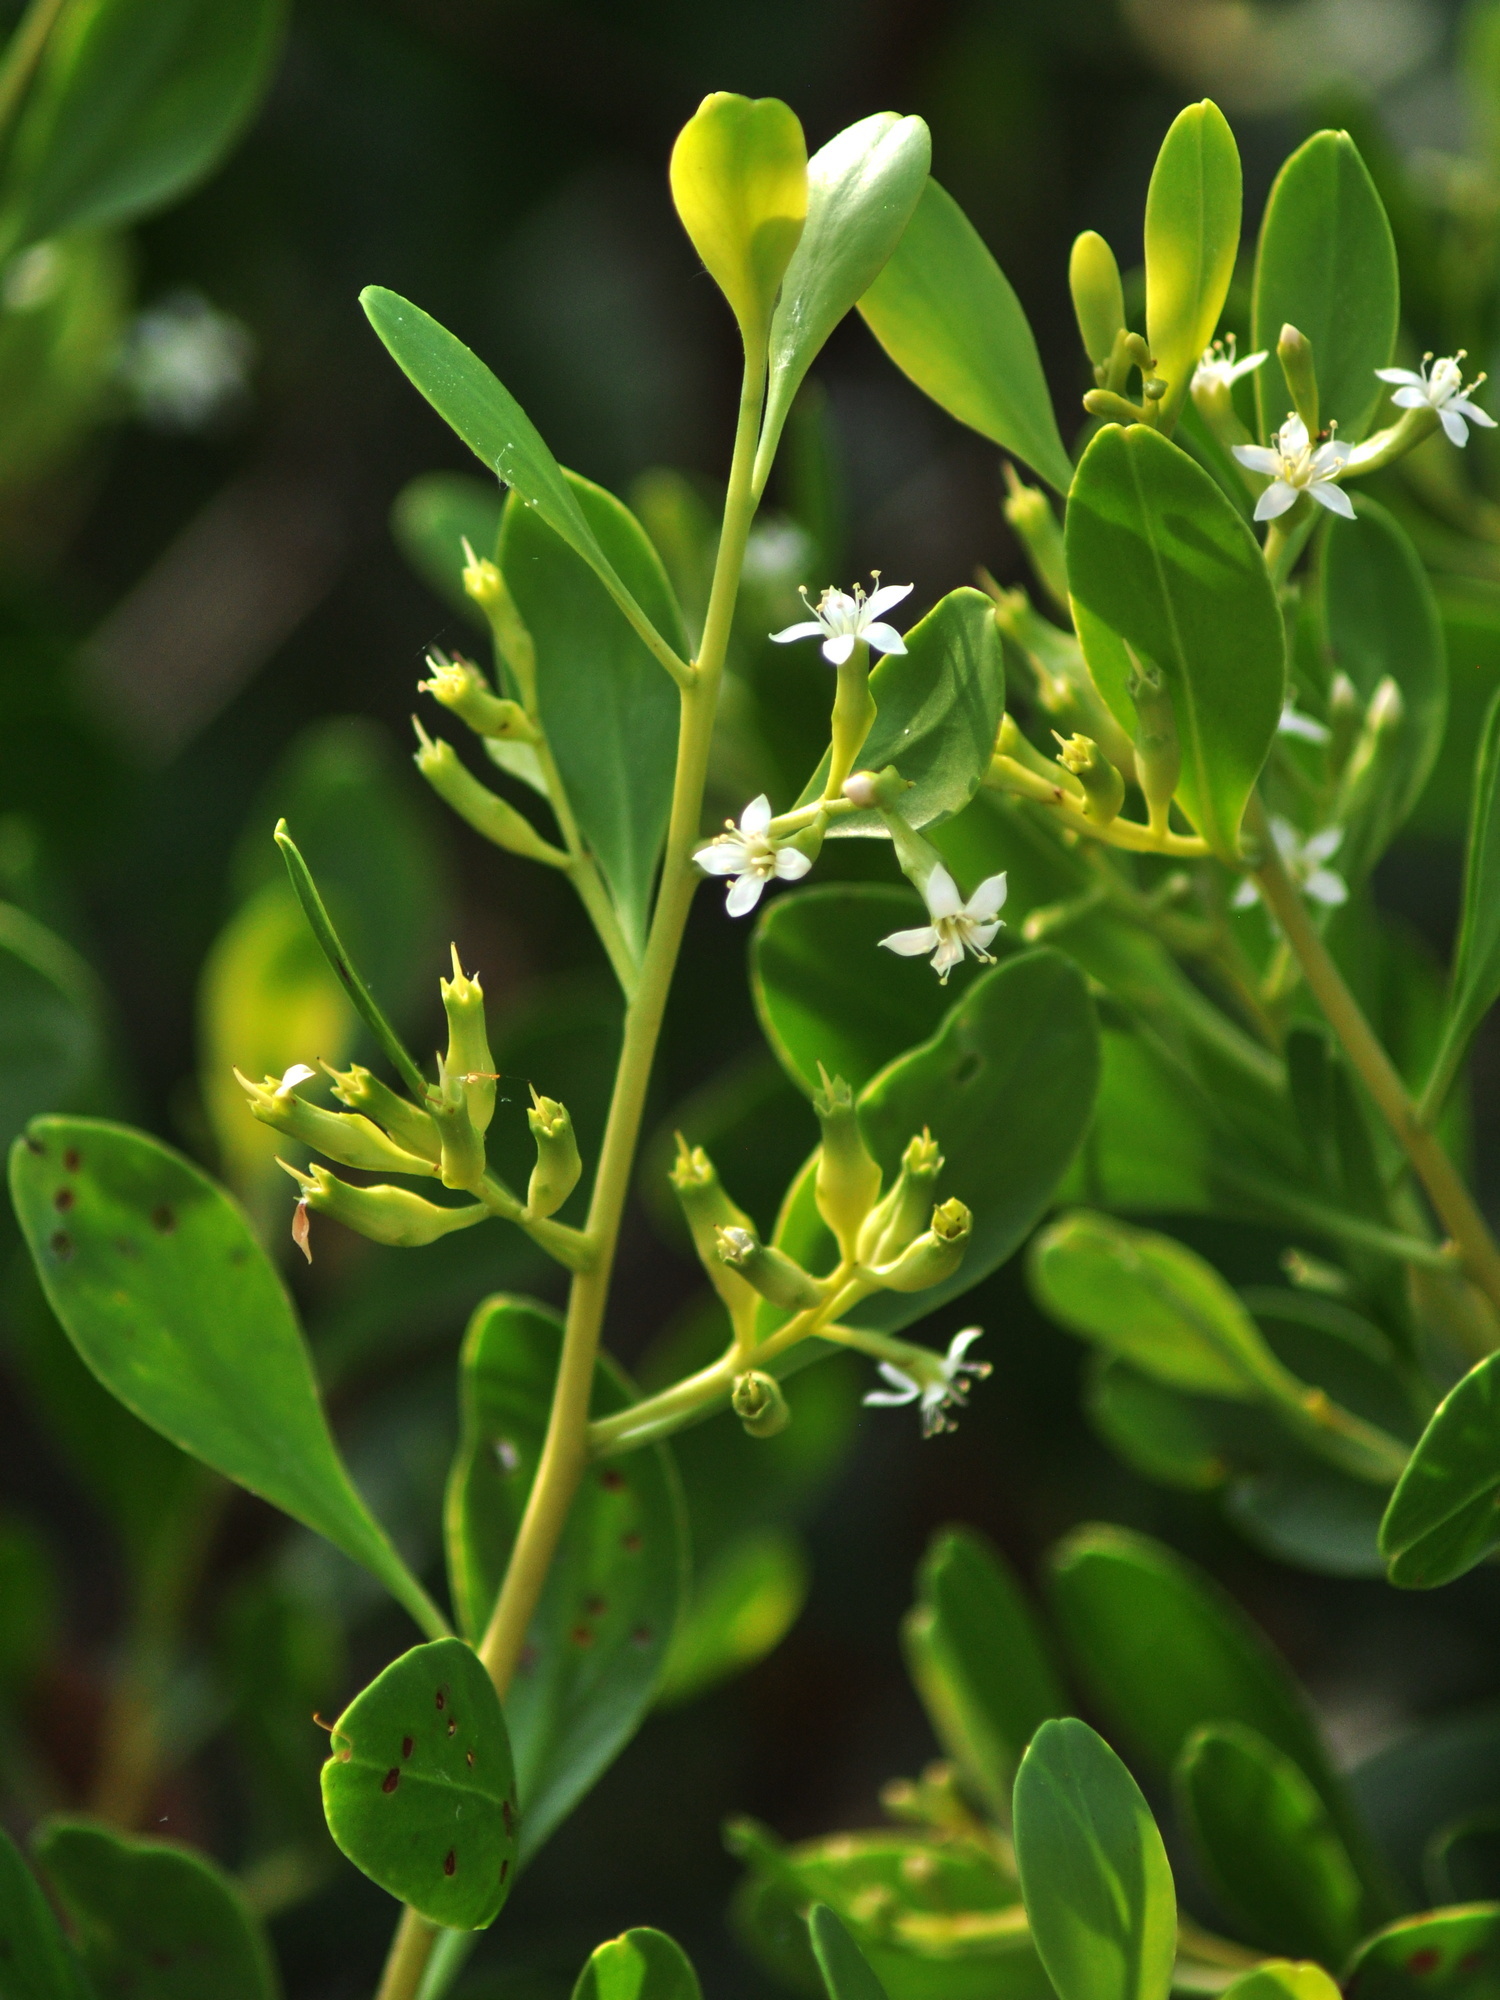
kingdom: Plantae
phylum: Tracheophyta
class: Magnoliopsida
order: Myrtales
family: Combretaceae
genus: Lumnitzera
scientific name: Lumnitzera racemosa
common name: White-flowered black mangrove
